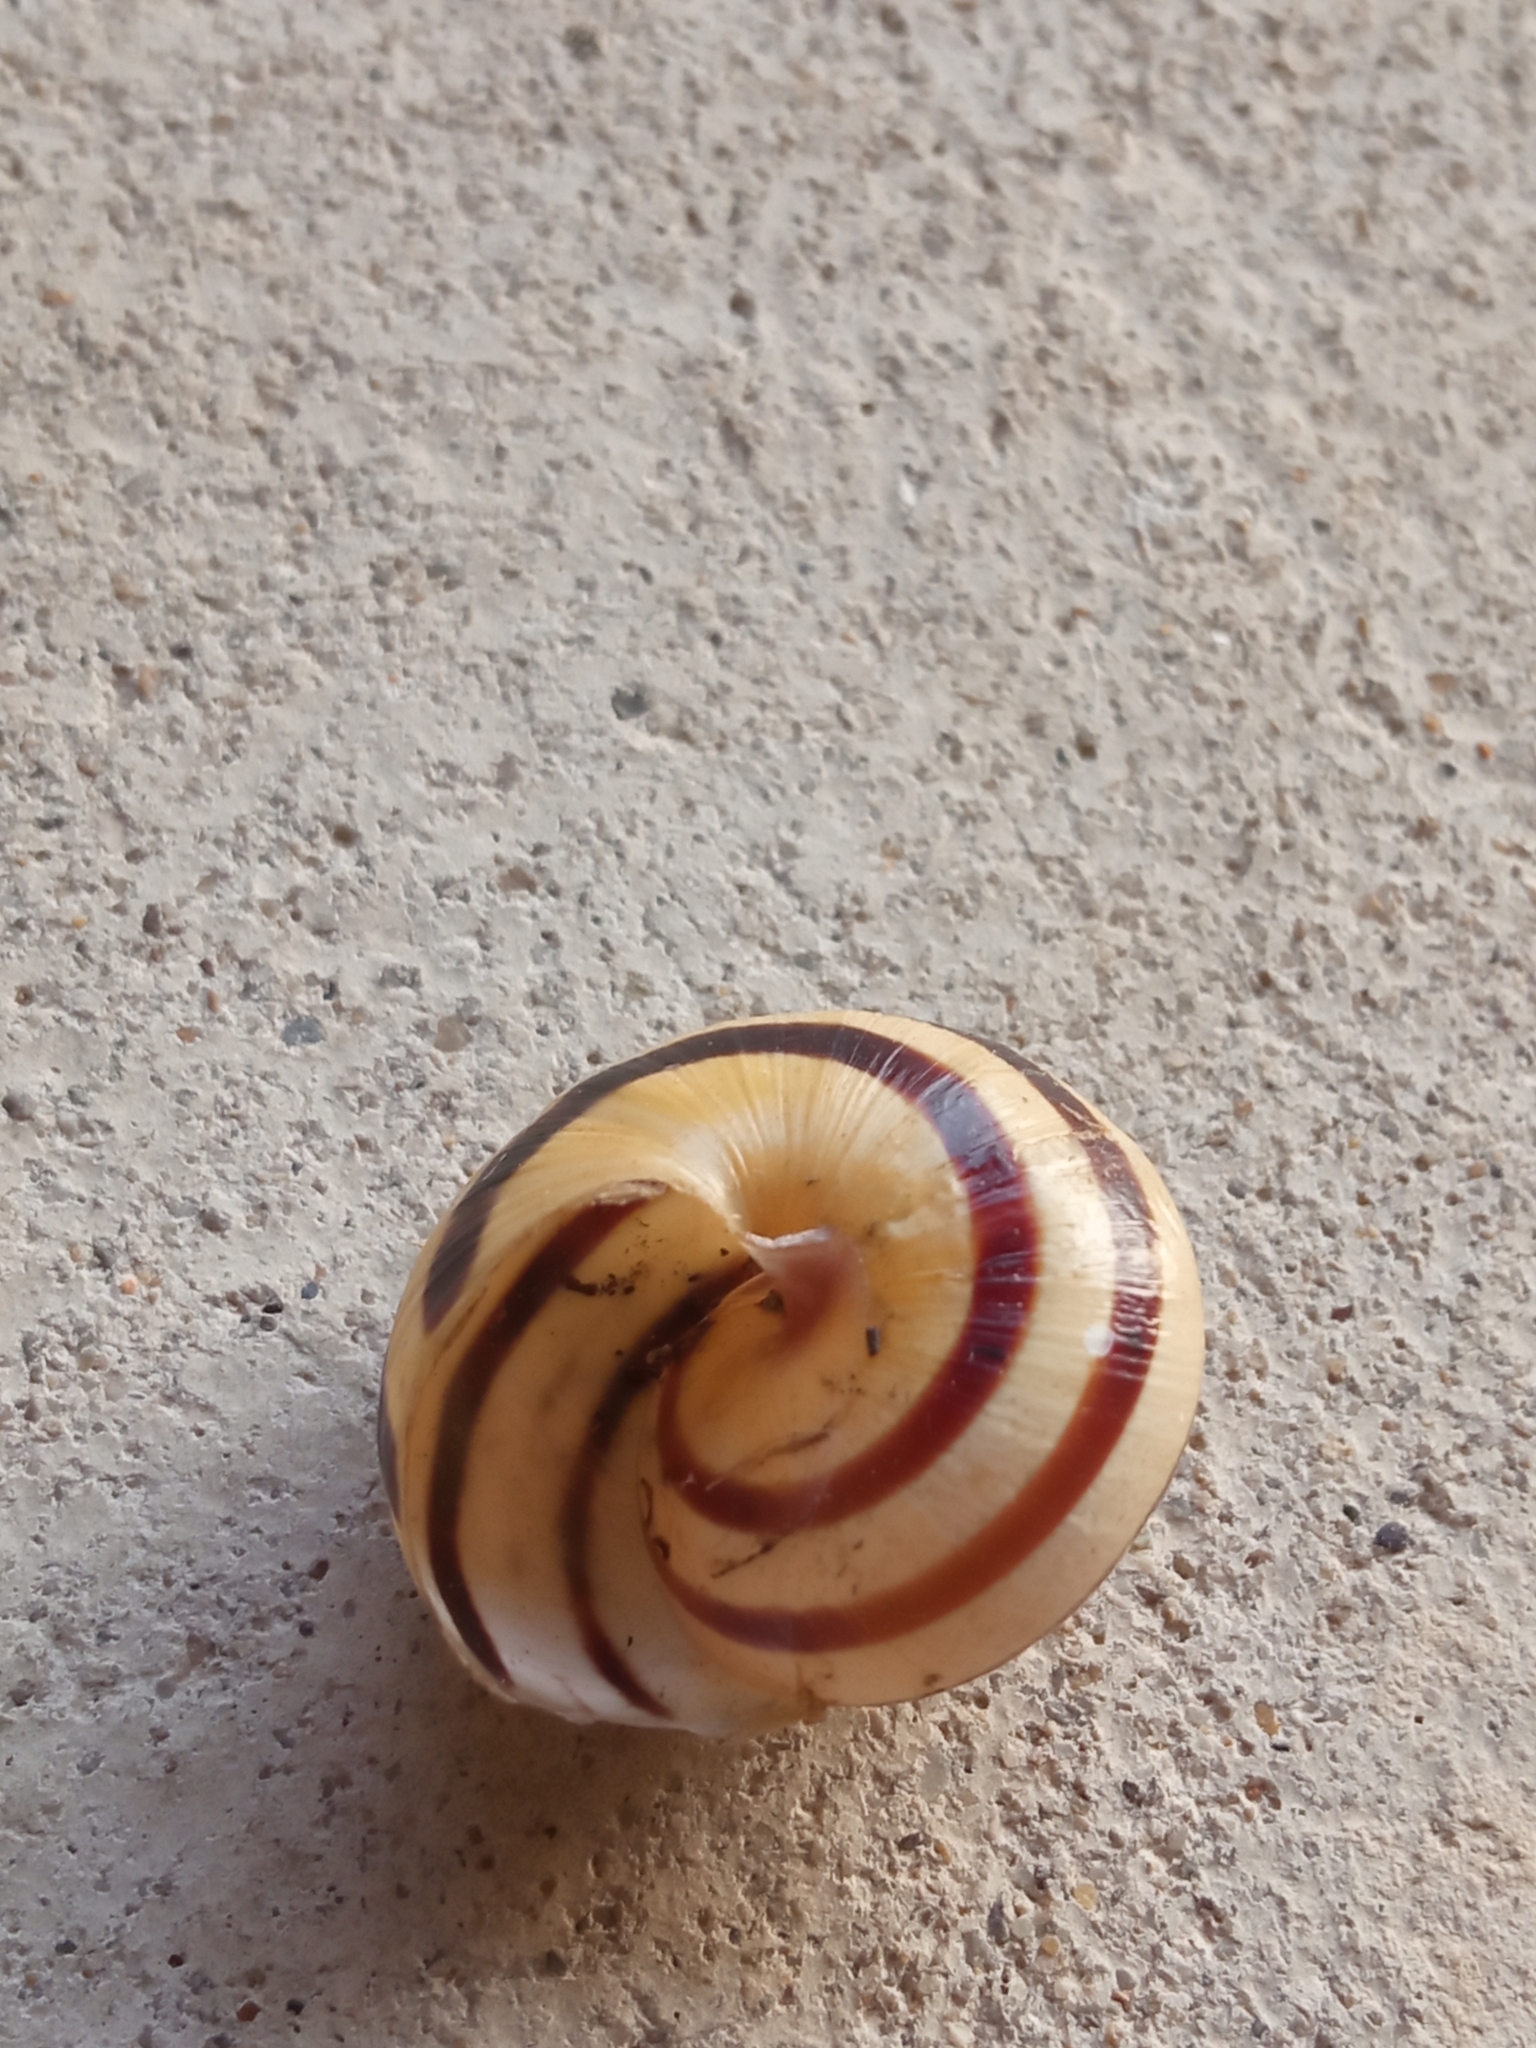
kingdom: Animalia
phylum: Mollusca
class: Gastropoda
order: Stylommatophora
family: Helicidae
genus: Cepaea
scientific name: Cepaea
